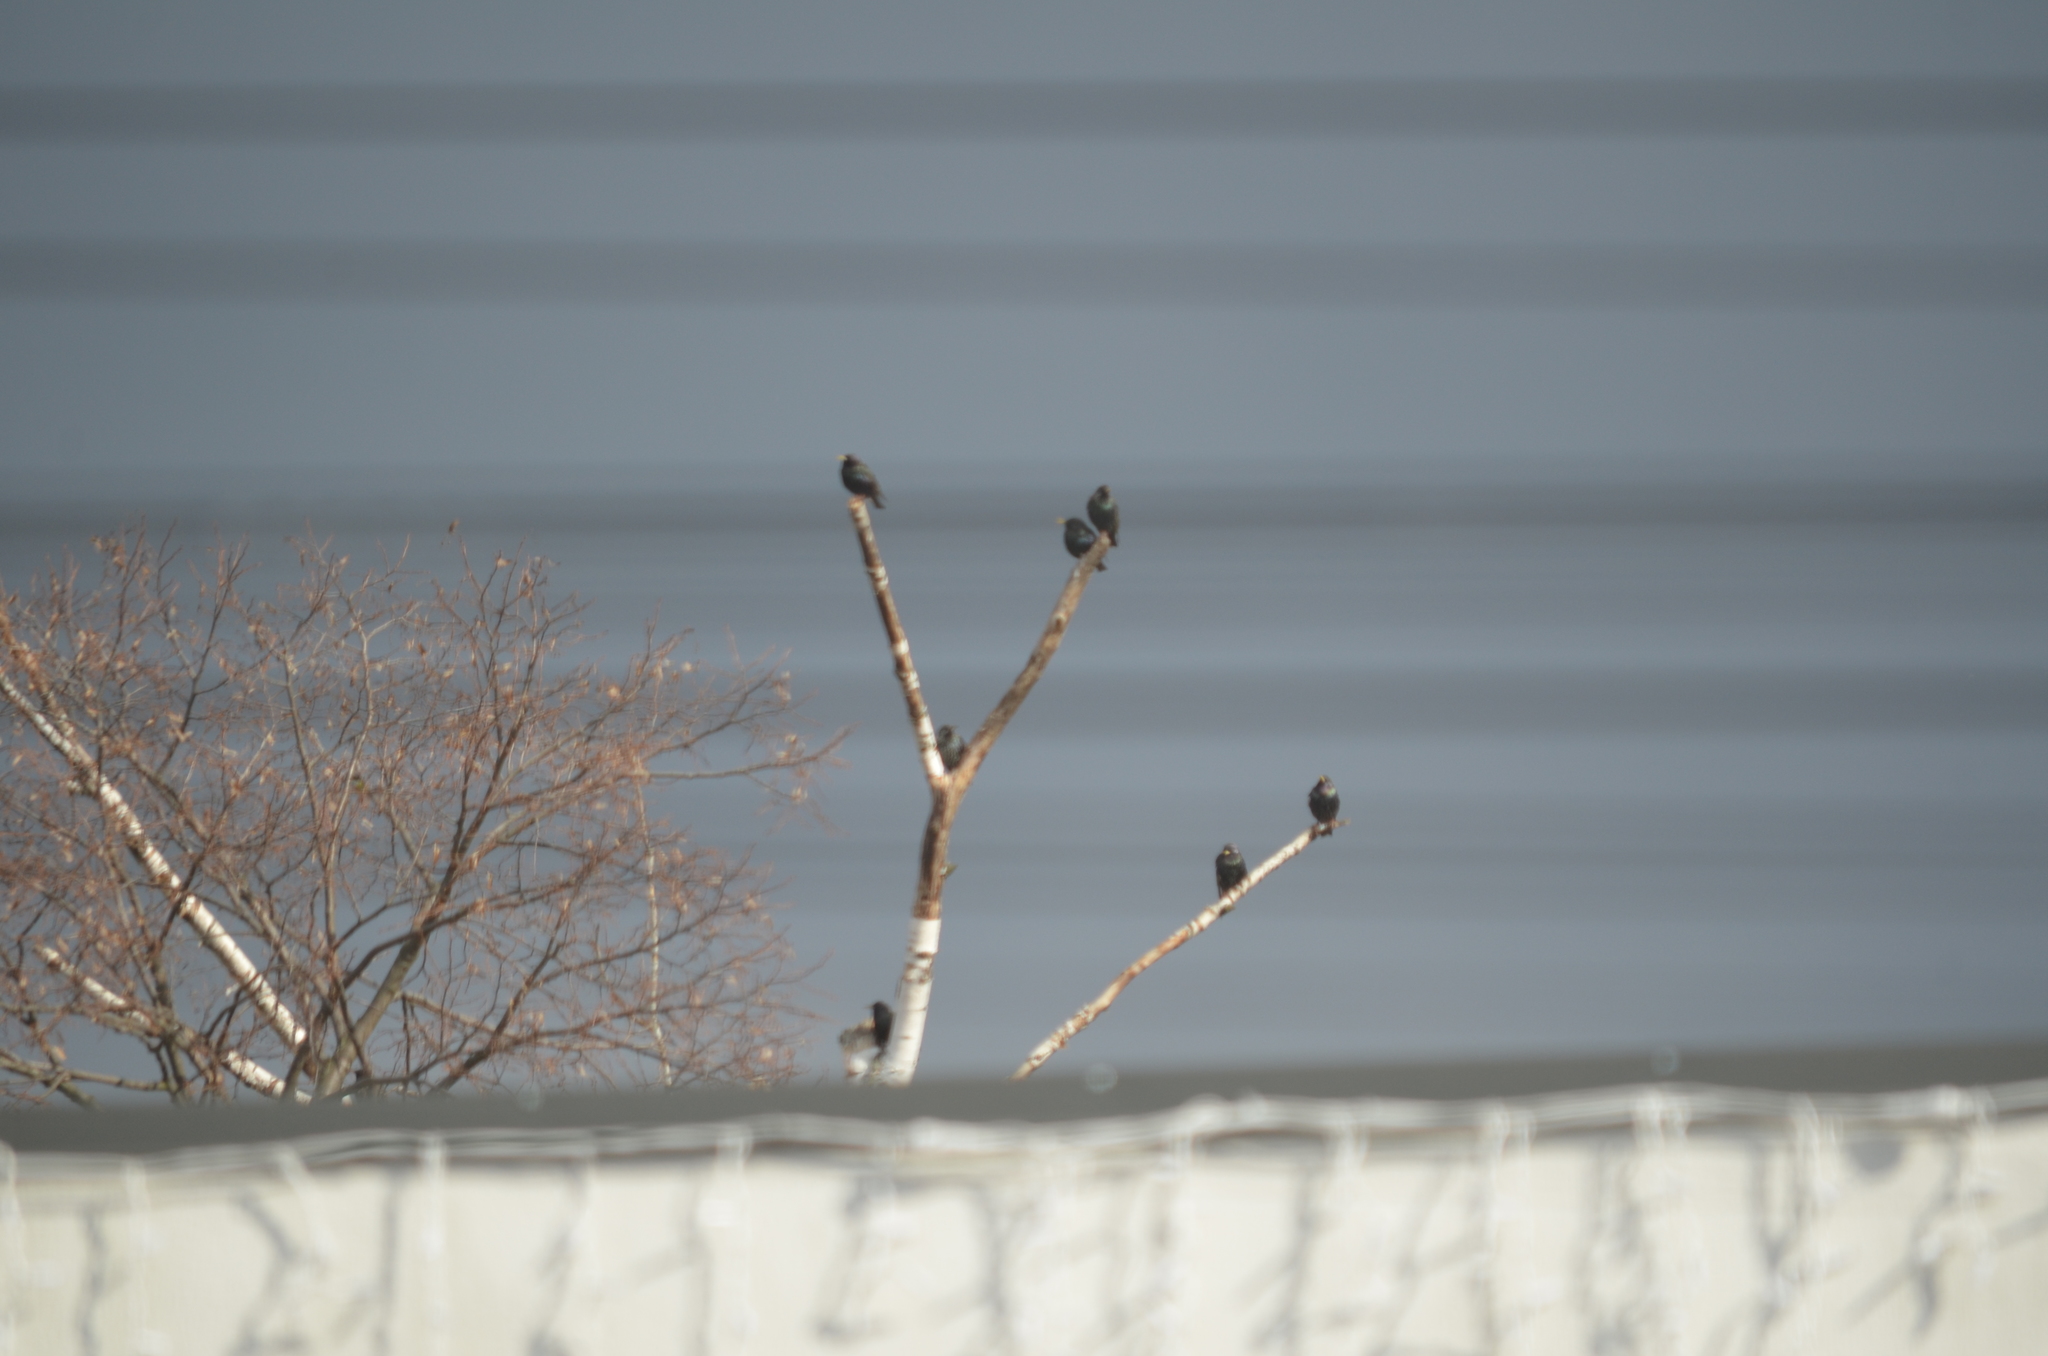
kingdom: Animalia
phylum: Chordata
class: Aves
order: Passeriformes
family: Sturnidae
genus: Sturnus
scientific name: Sturnus vulgaris
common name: Common starling
